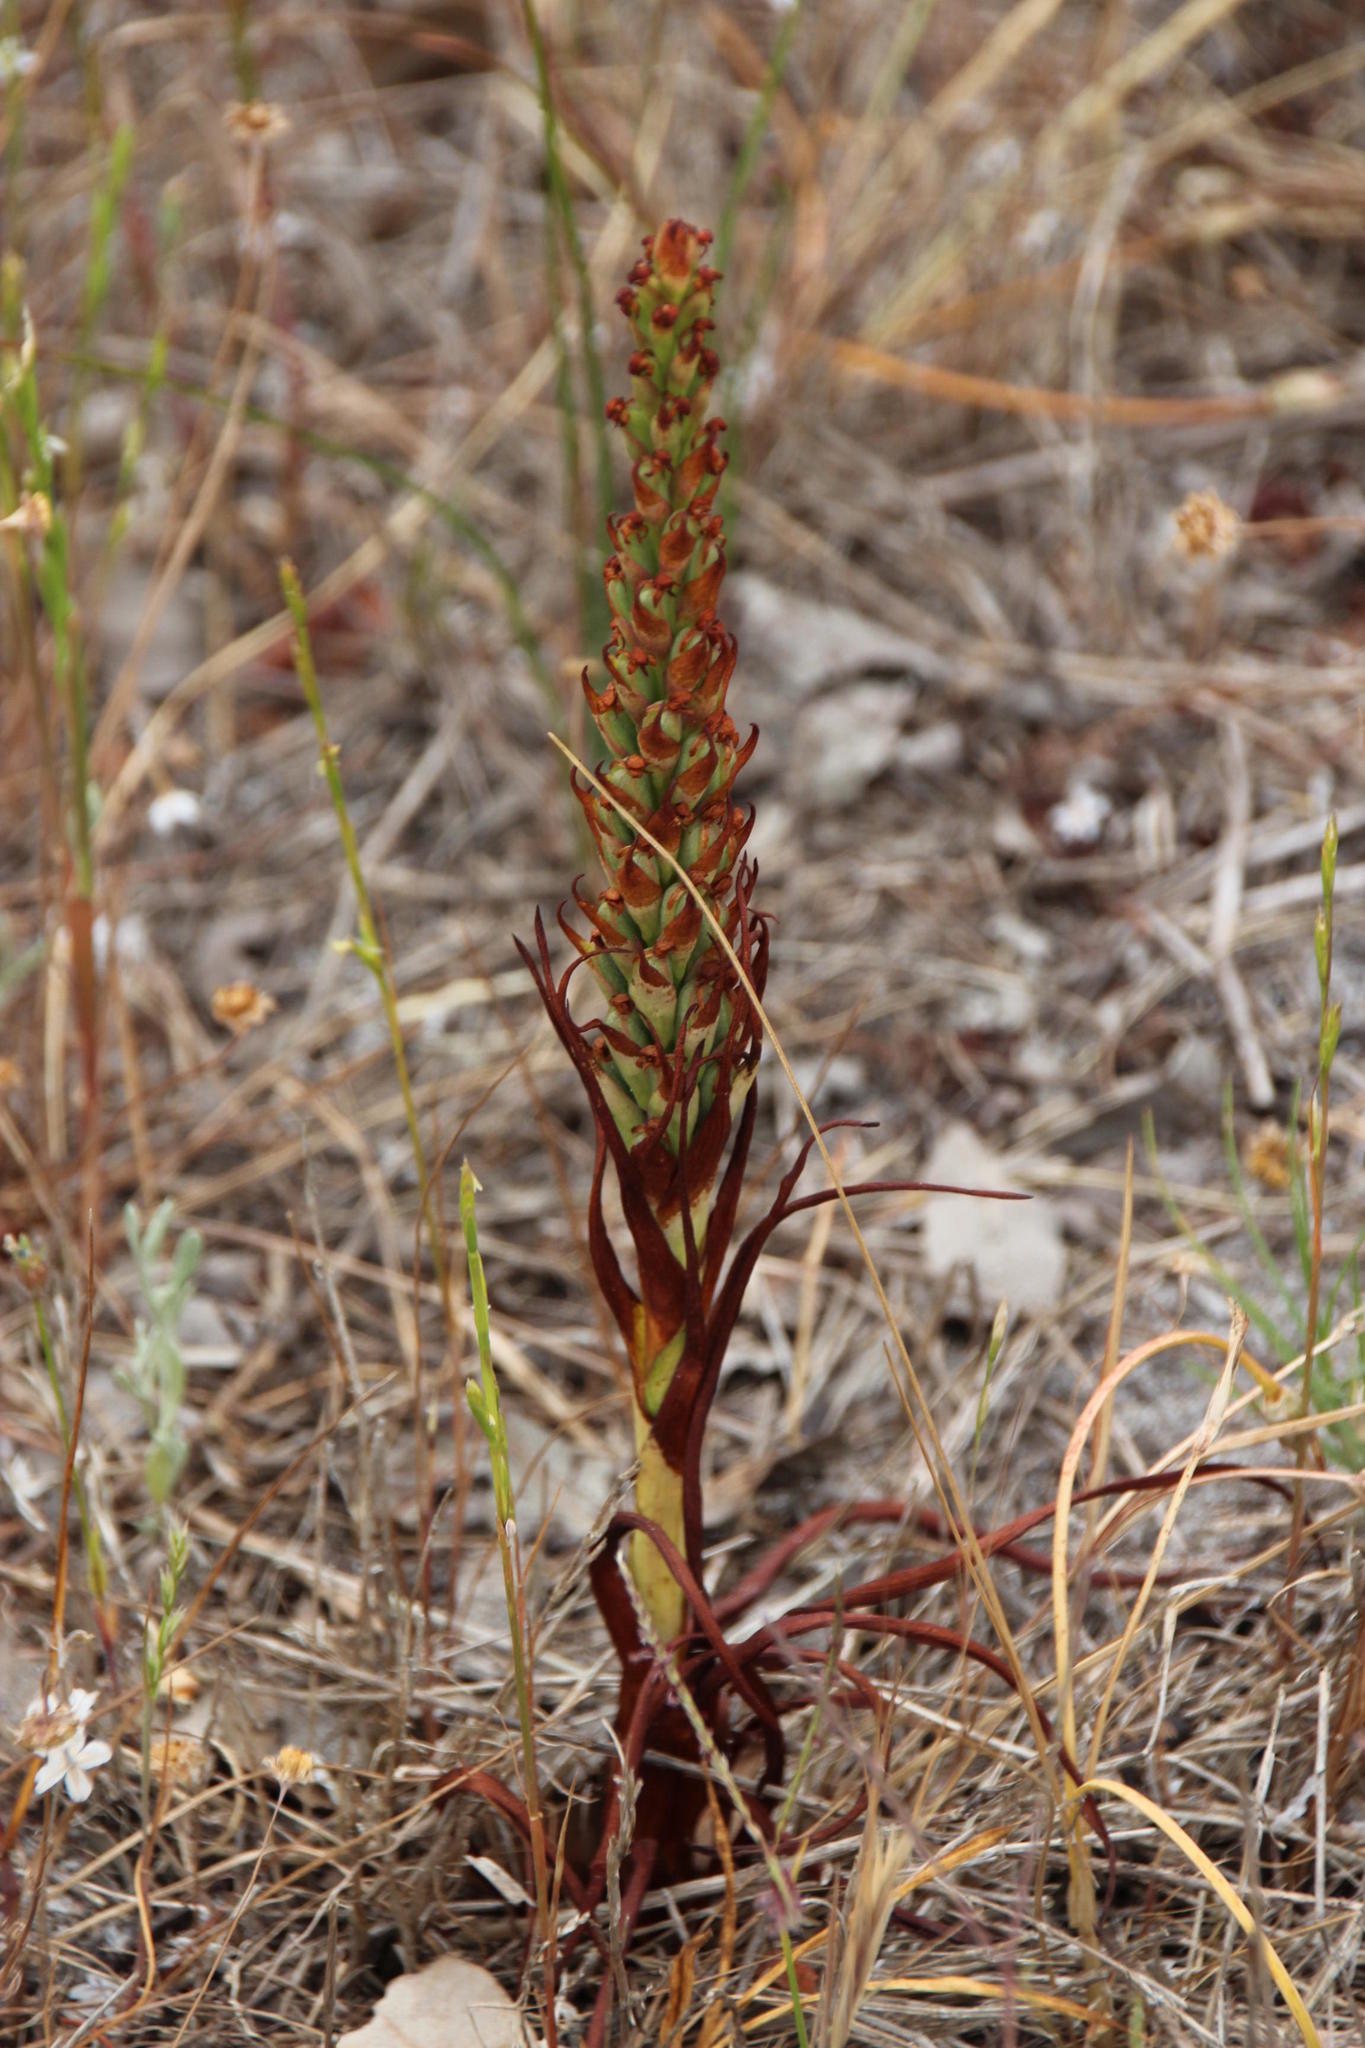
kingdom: Plantae
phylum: Tracheophyta
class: Liliopsida
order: Asparagales
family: Orchidaceae
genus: Disa
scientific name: Disa bracteata
